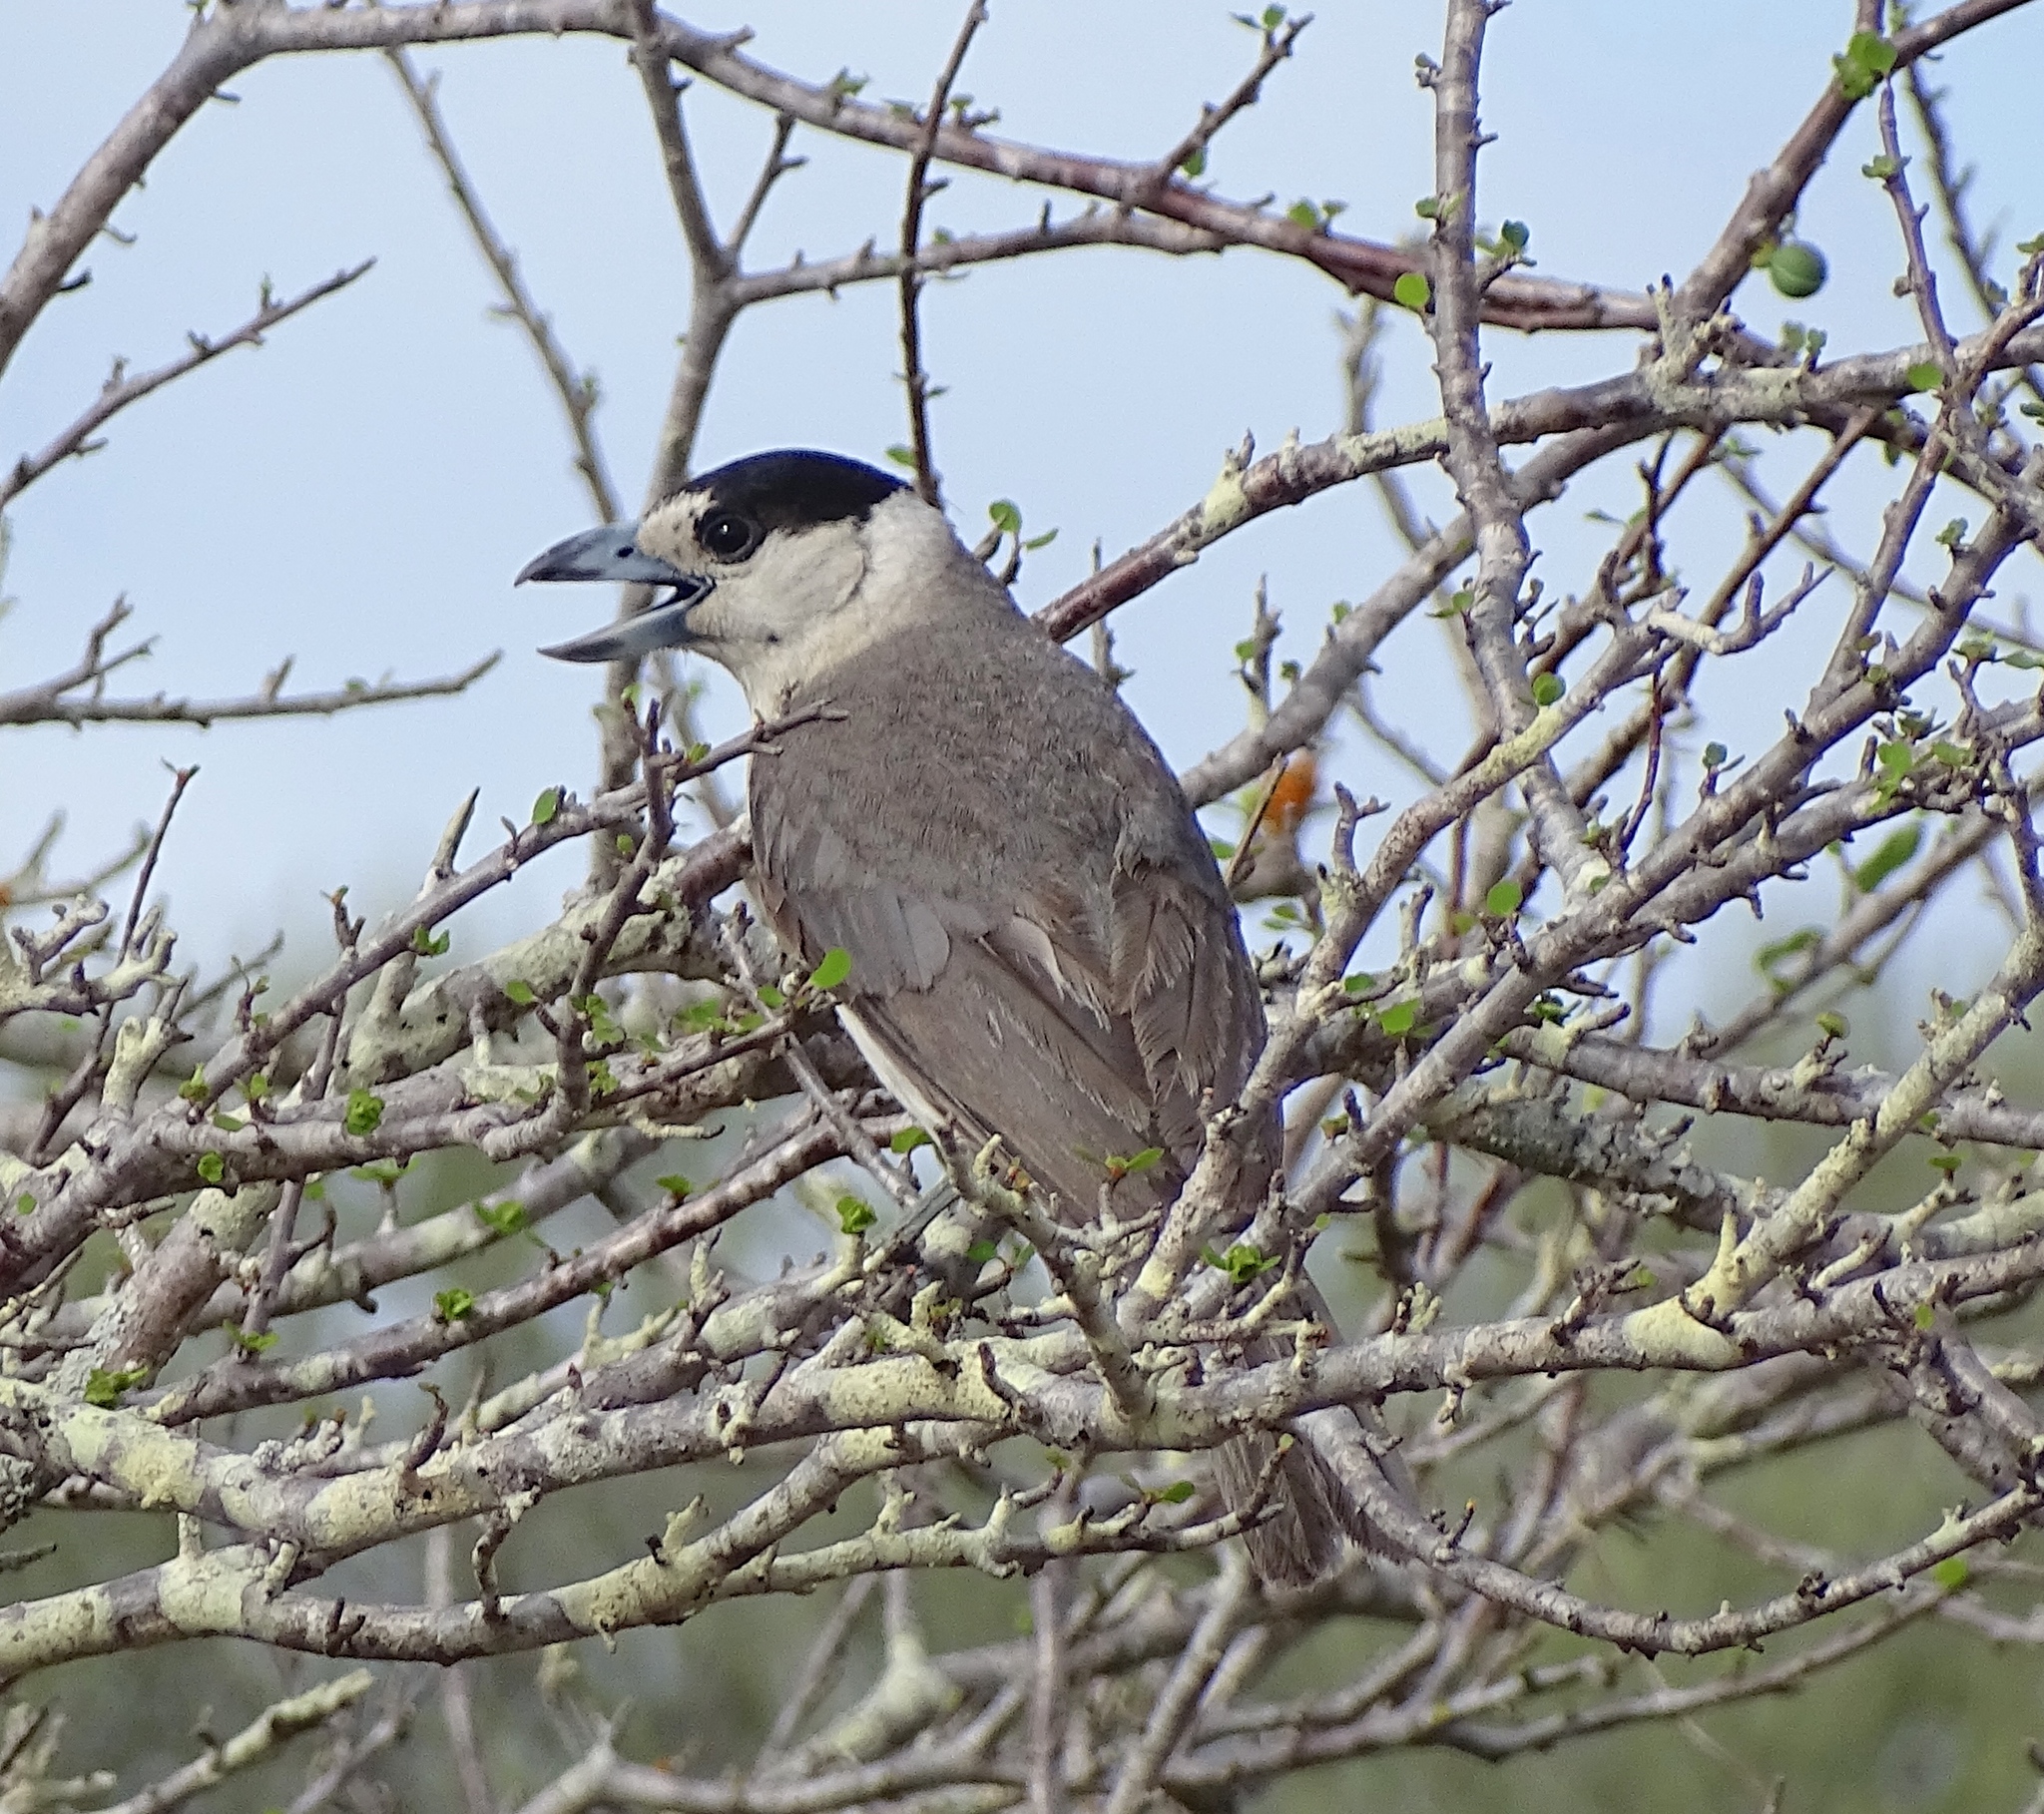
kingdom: Animalia
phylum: Chordata
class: Aves
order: Passeriformes
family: Vangidae
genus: Xenopirostris
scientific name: Xenopirostris xenopirostris
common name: Lafresnaye's vanga
